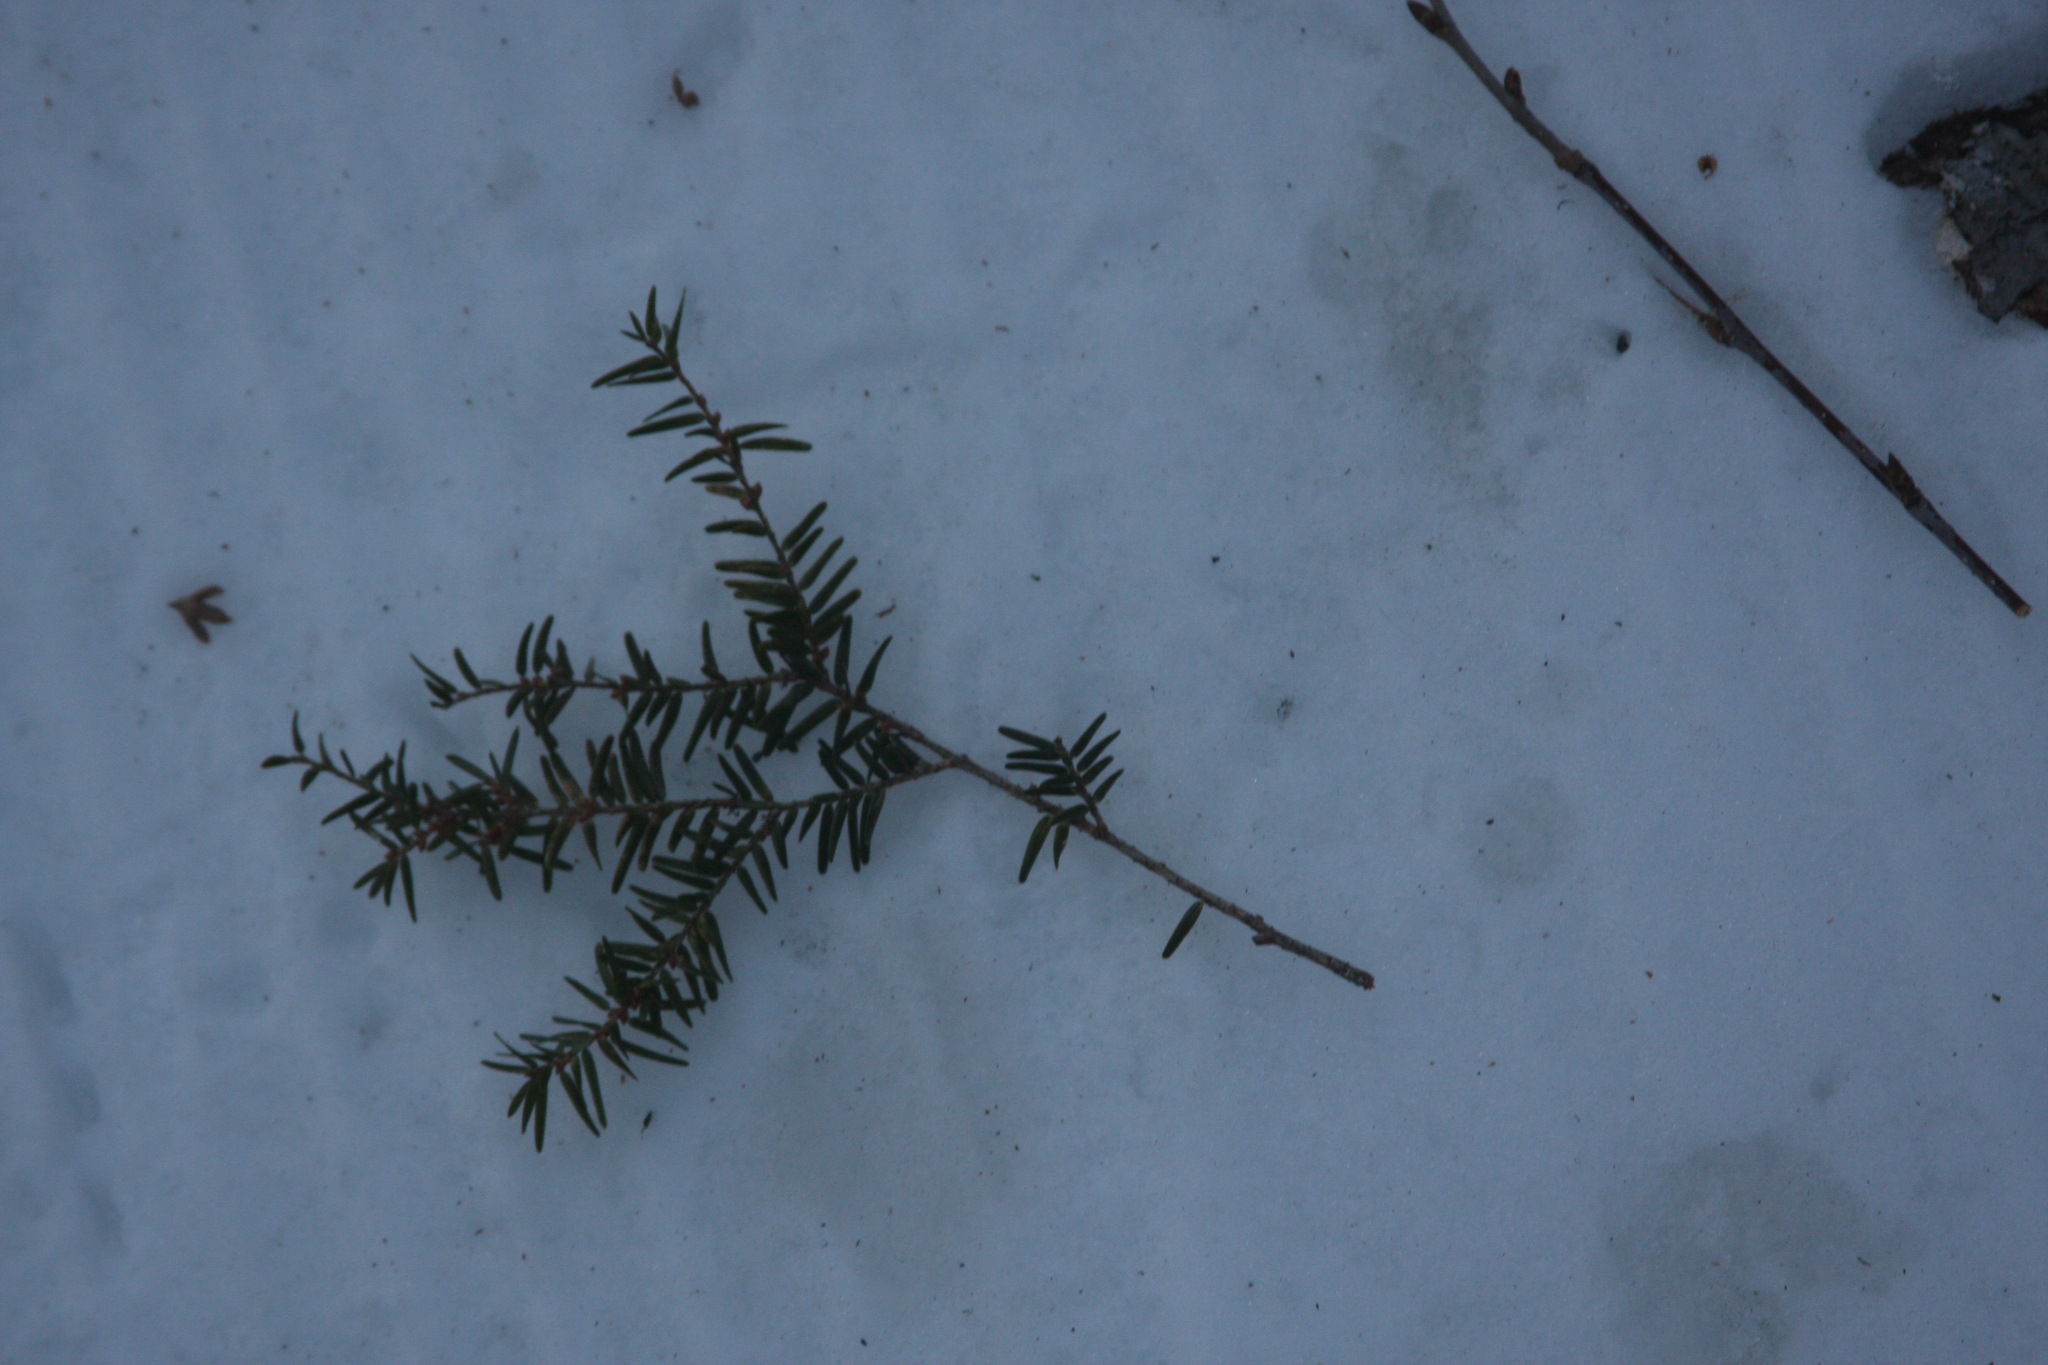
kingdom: Plantae
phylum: Tracheophyta
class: Pinopsida
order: Pinales
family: Pinaceae
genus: Tsuga
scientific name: Tsuga canadensis
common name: Eastern hemlock
